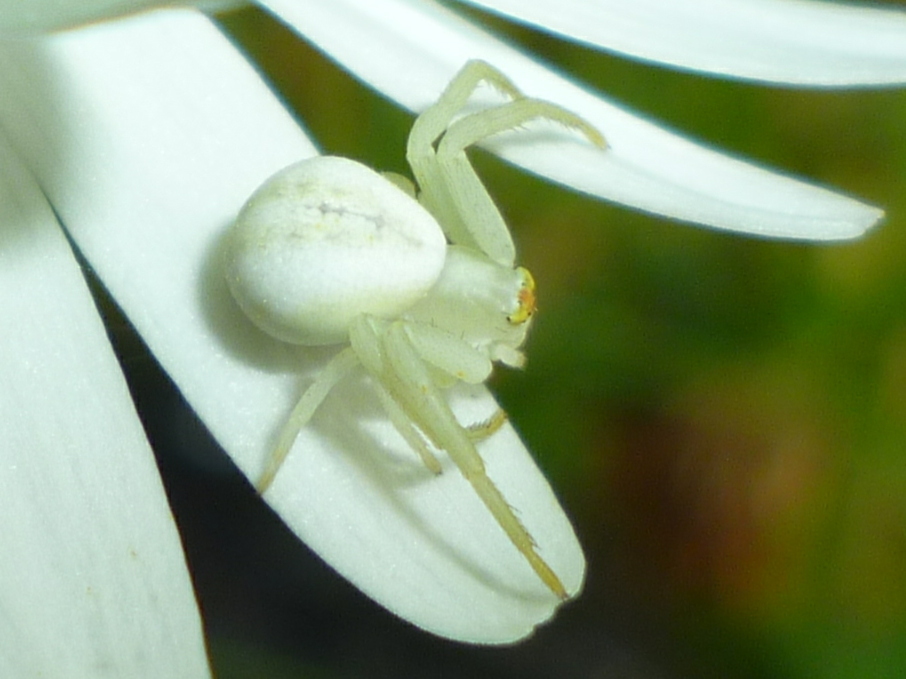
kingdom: Animalia
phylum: Arthropoda
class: Arachnida
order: Araneae
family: Thomisidae
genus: Misumena
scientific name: Misumena vatia
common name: Goldenrod crab spider
